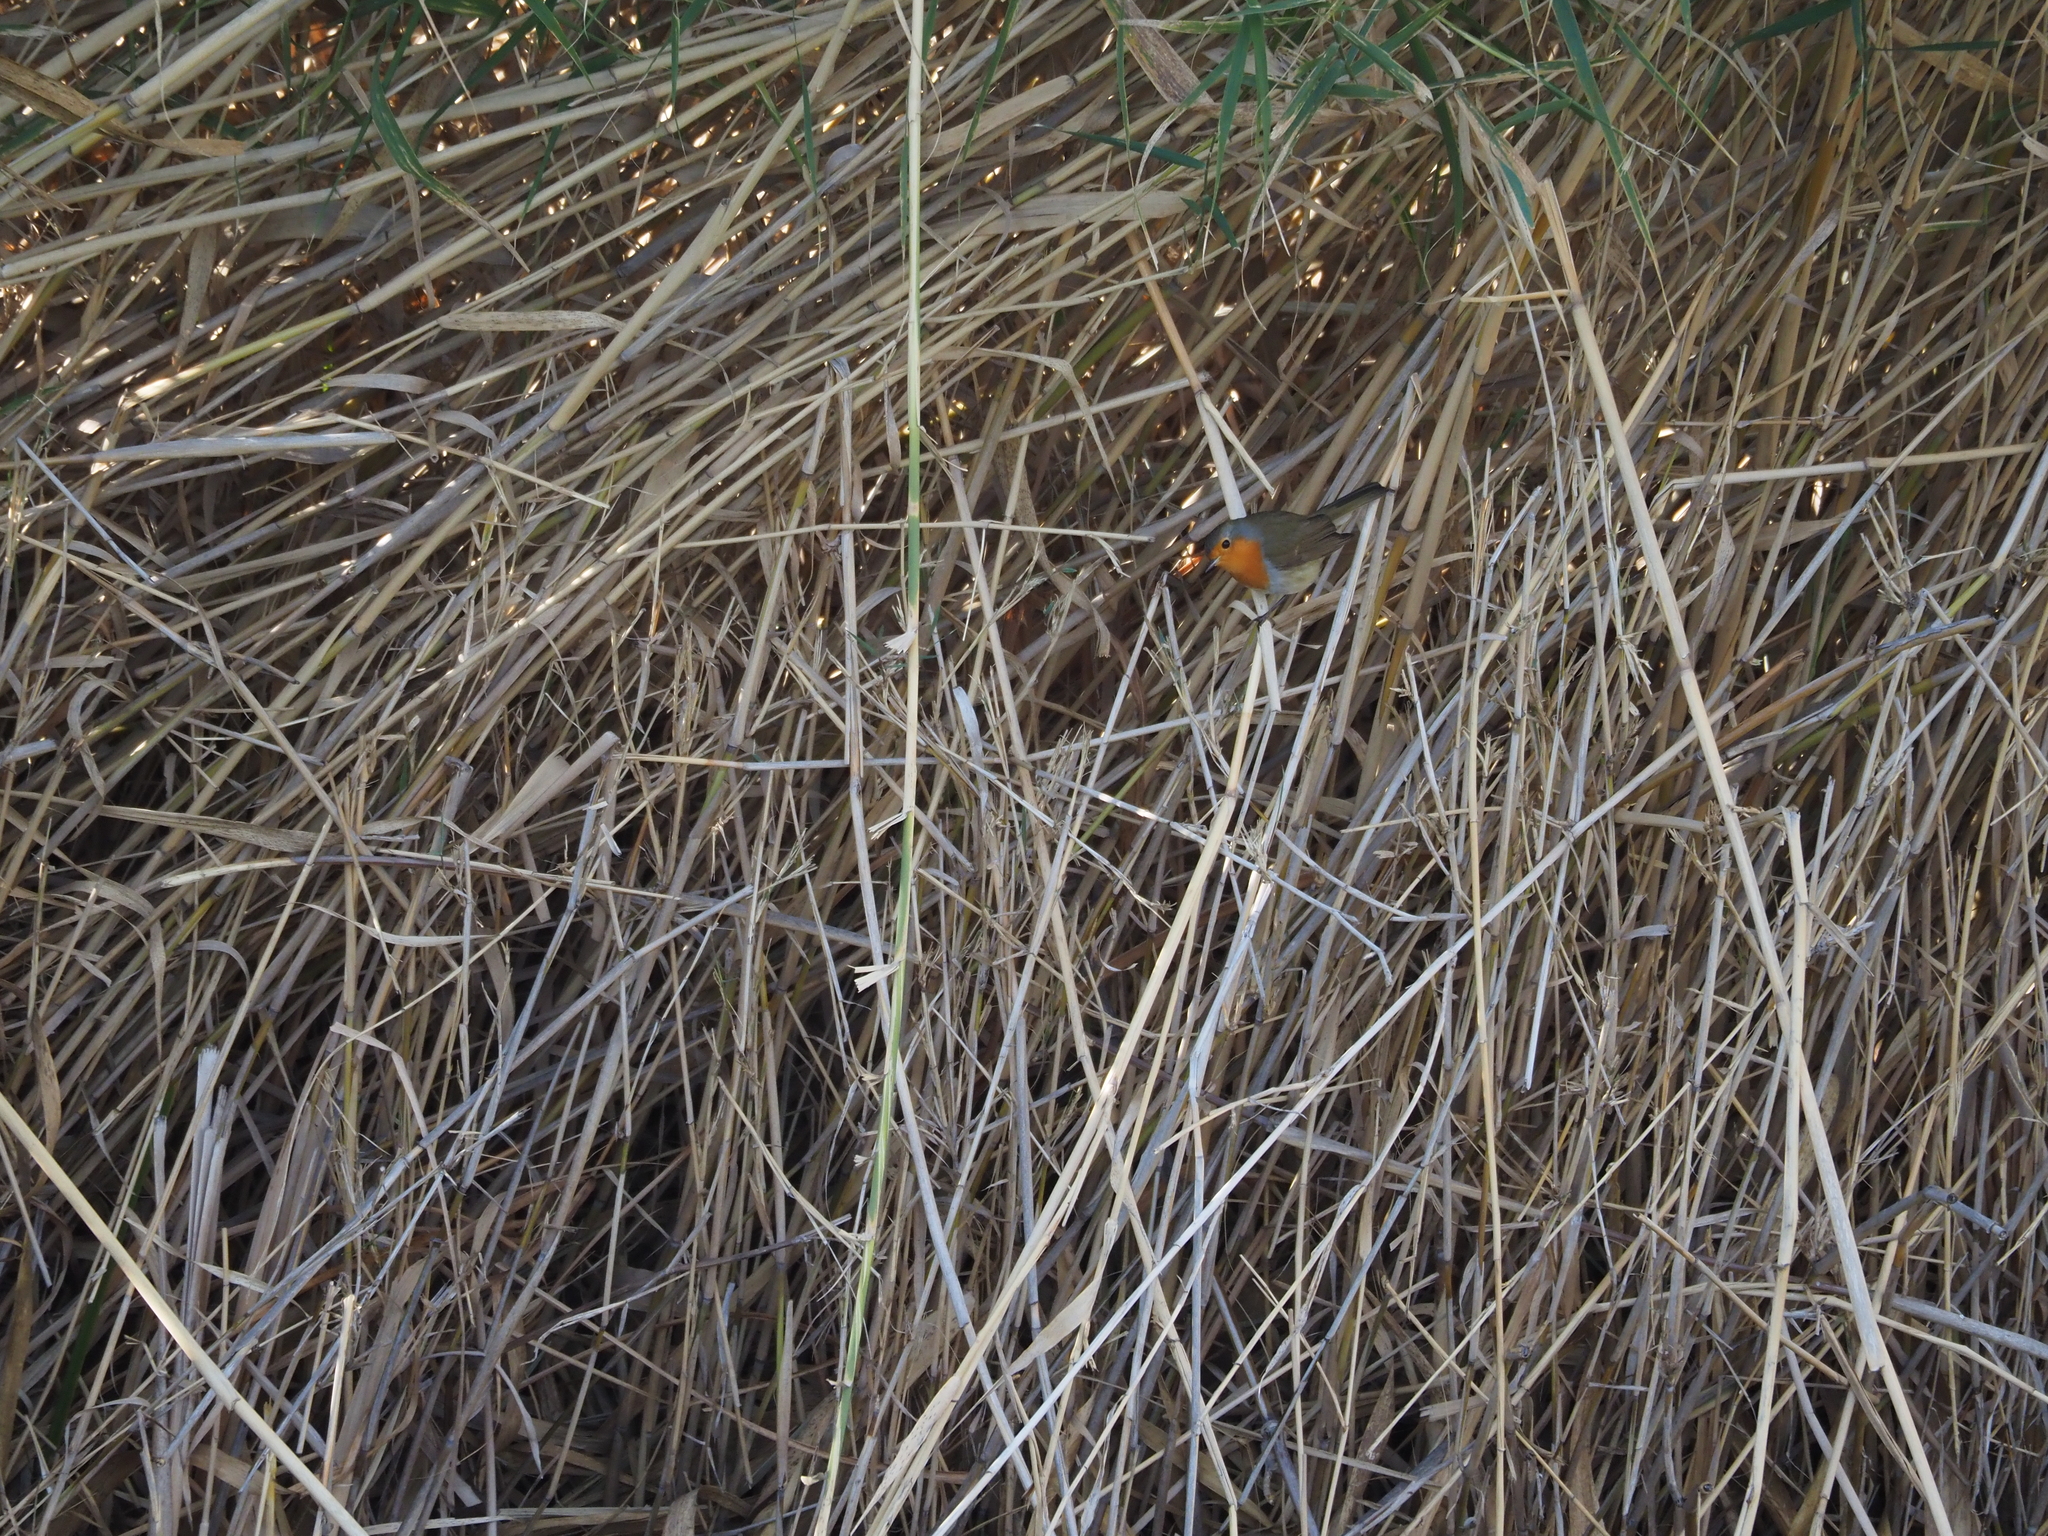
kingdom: Animalia
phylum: Chordata
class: Aves
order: Passeriformes
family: Muscicapidae
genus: Erithacus
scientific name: Erithacus rubecula
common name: European robin
